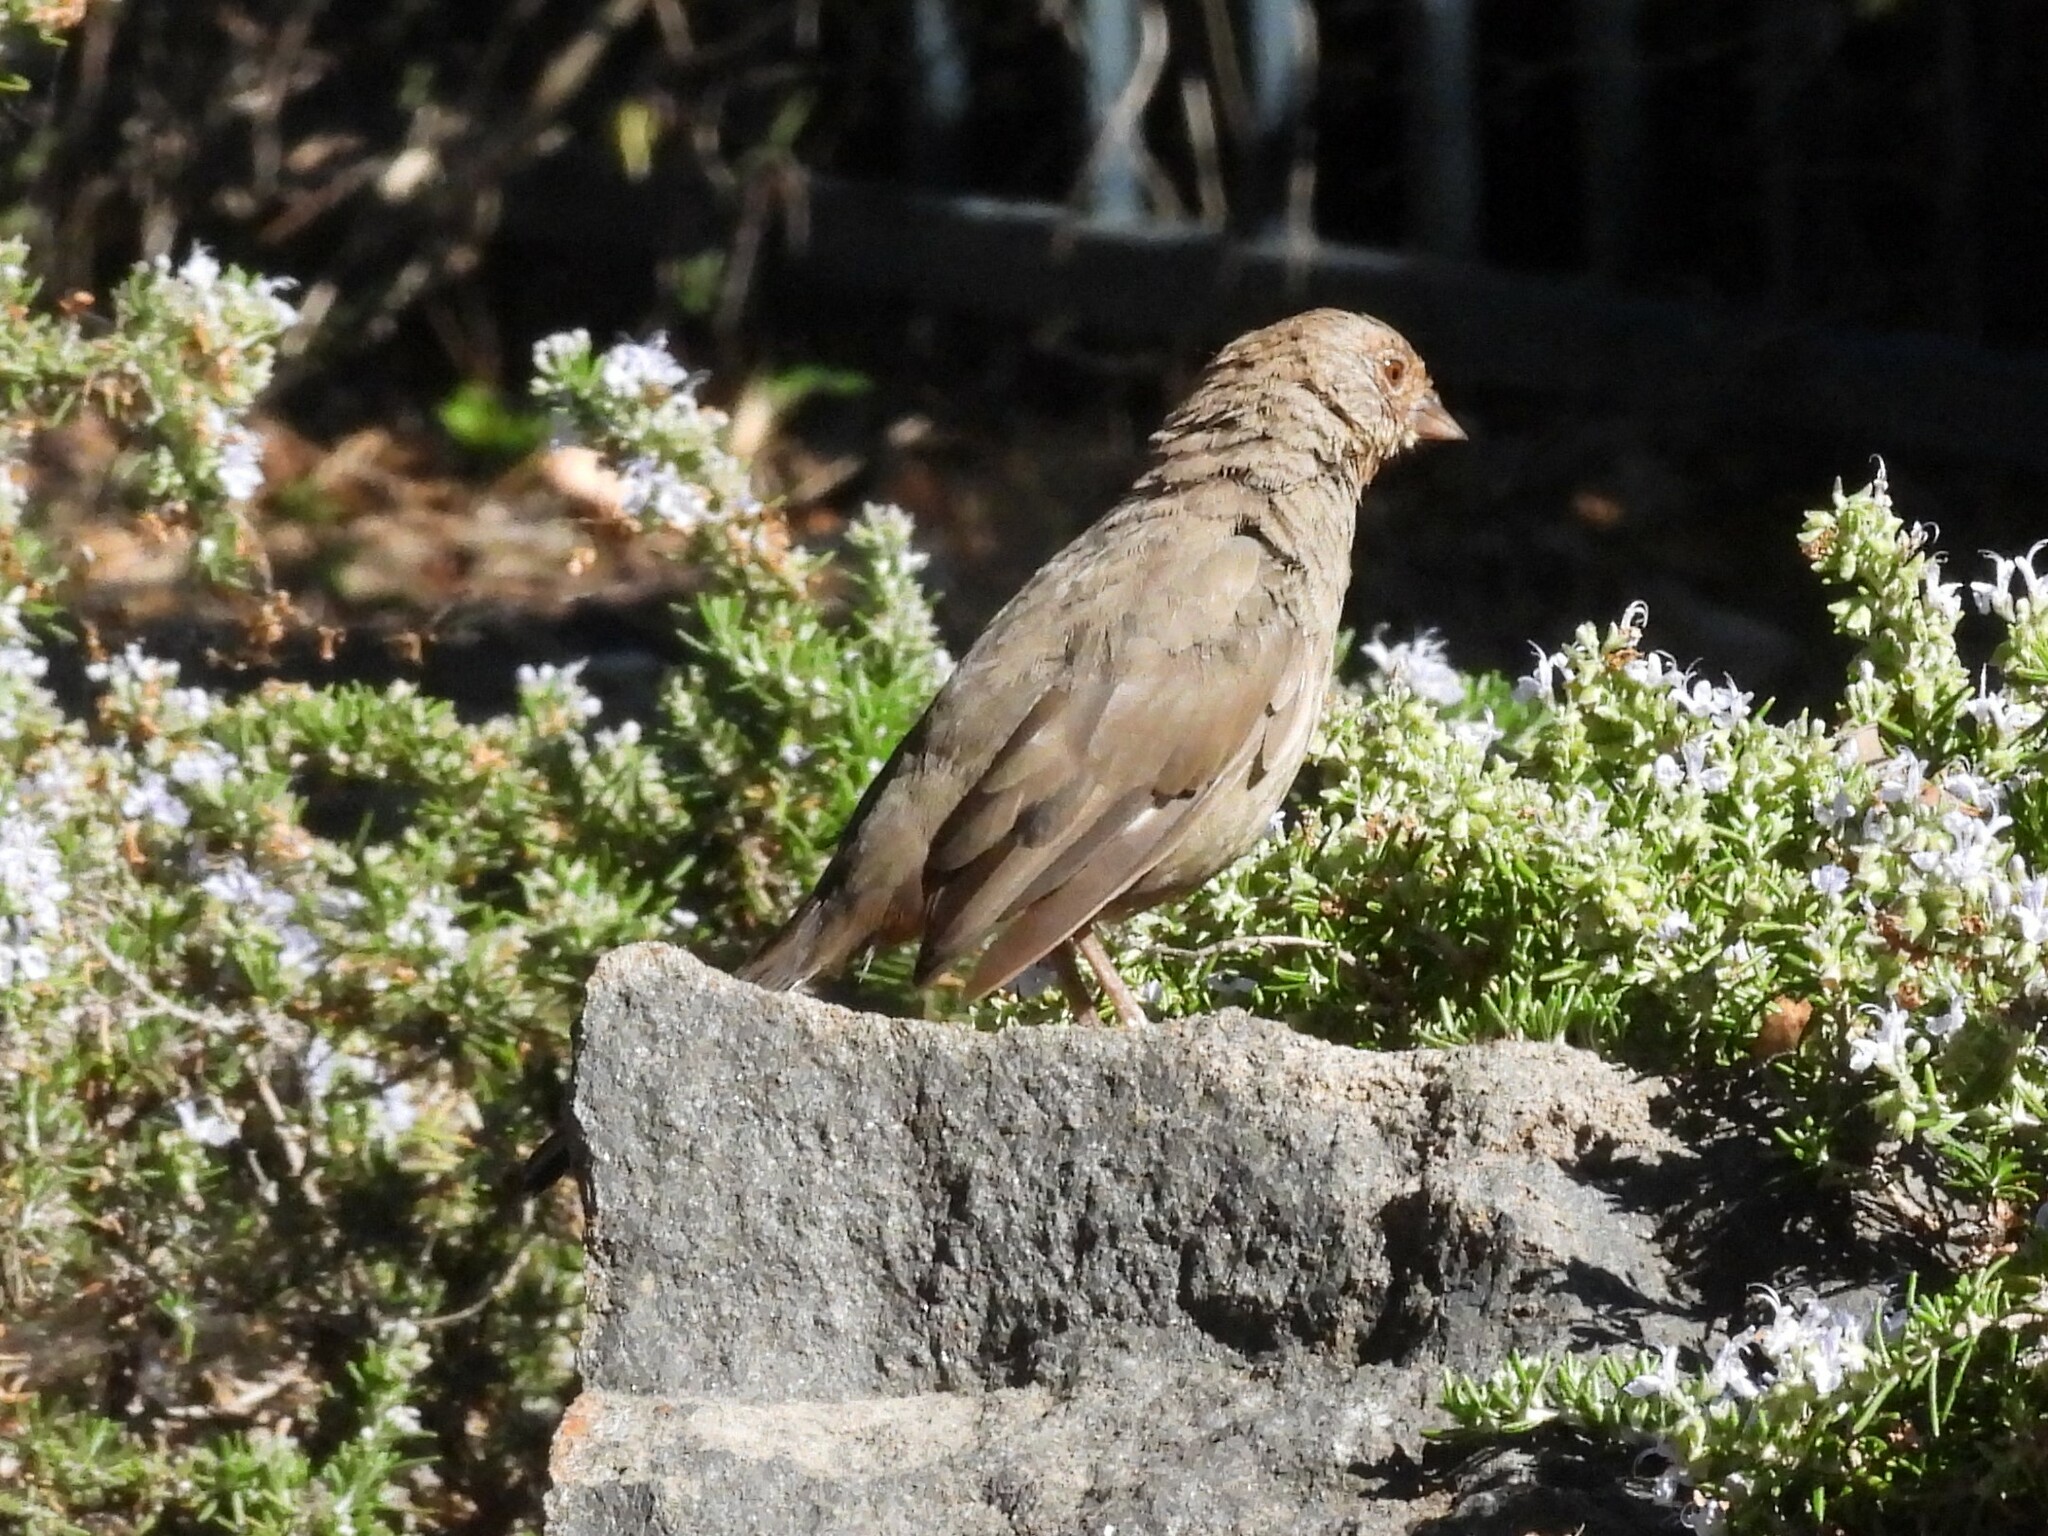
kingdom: Animalia
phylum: Chordata
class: Aves
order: Passeriformes
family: Passerellidae
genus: Melozone
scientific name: Melozone crissalis
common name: California towhee
